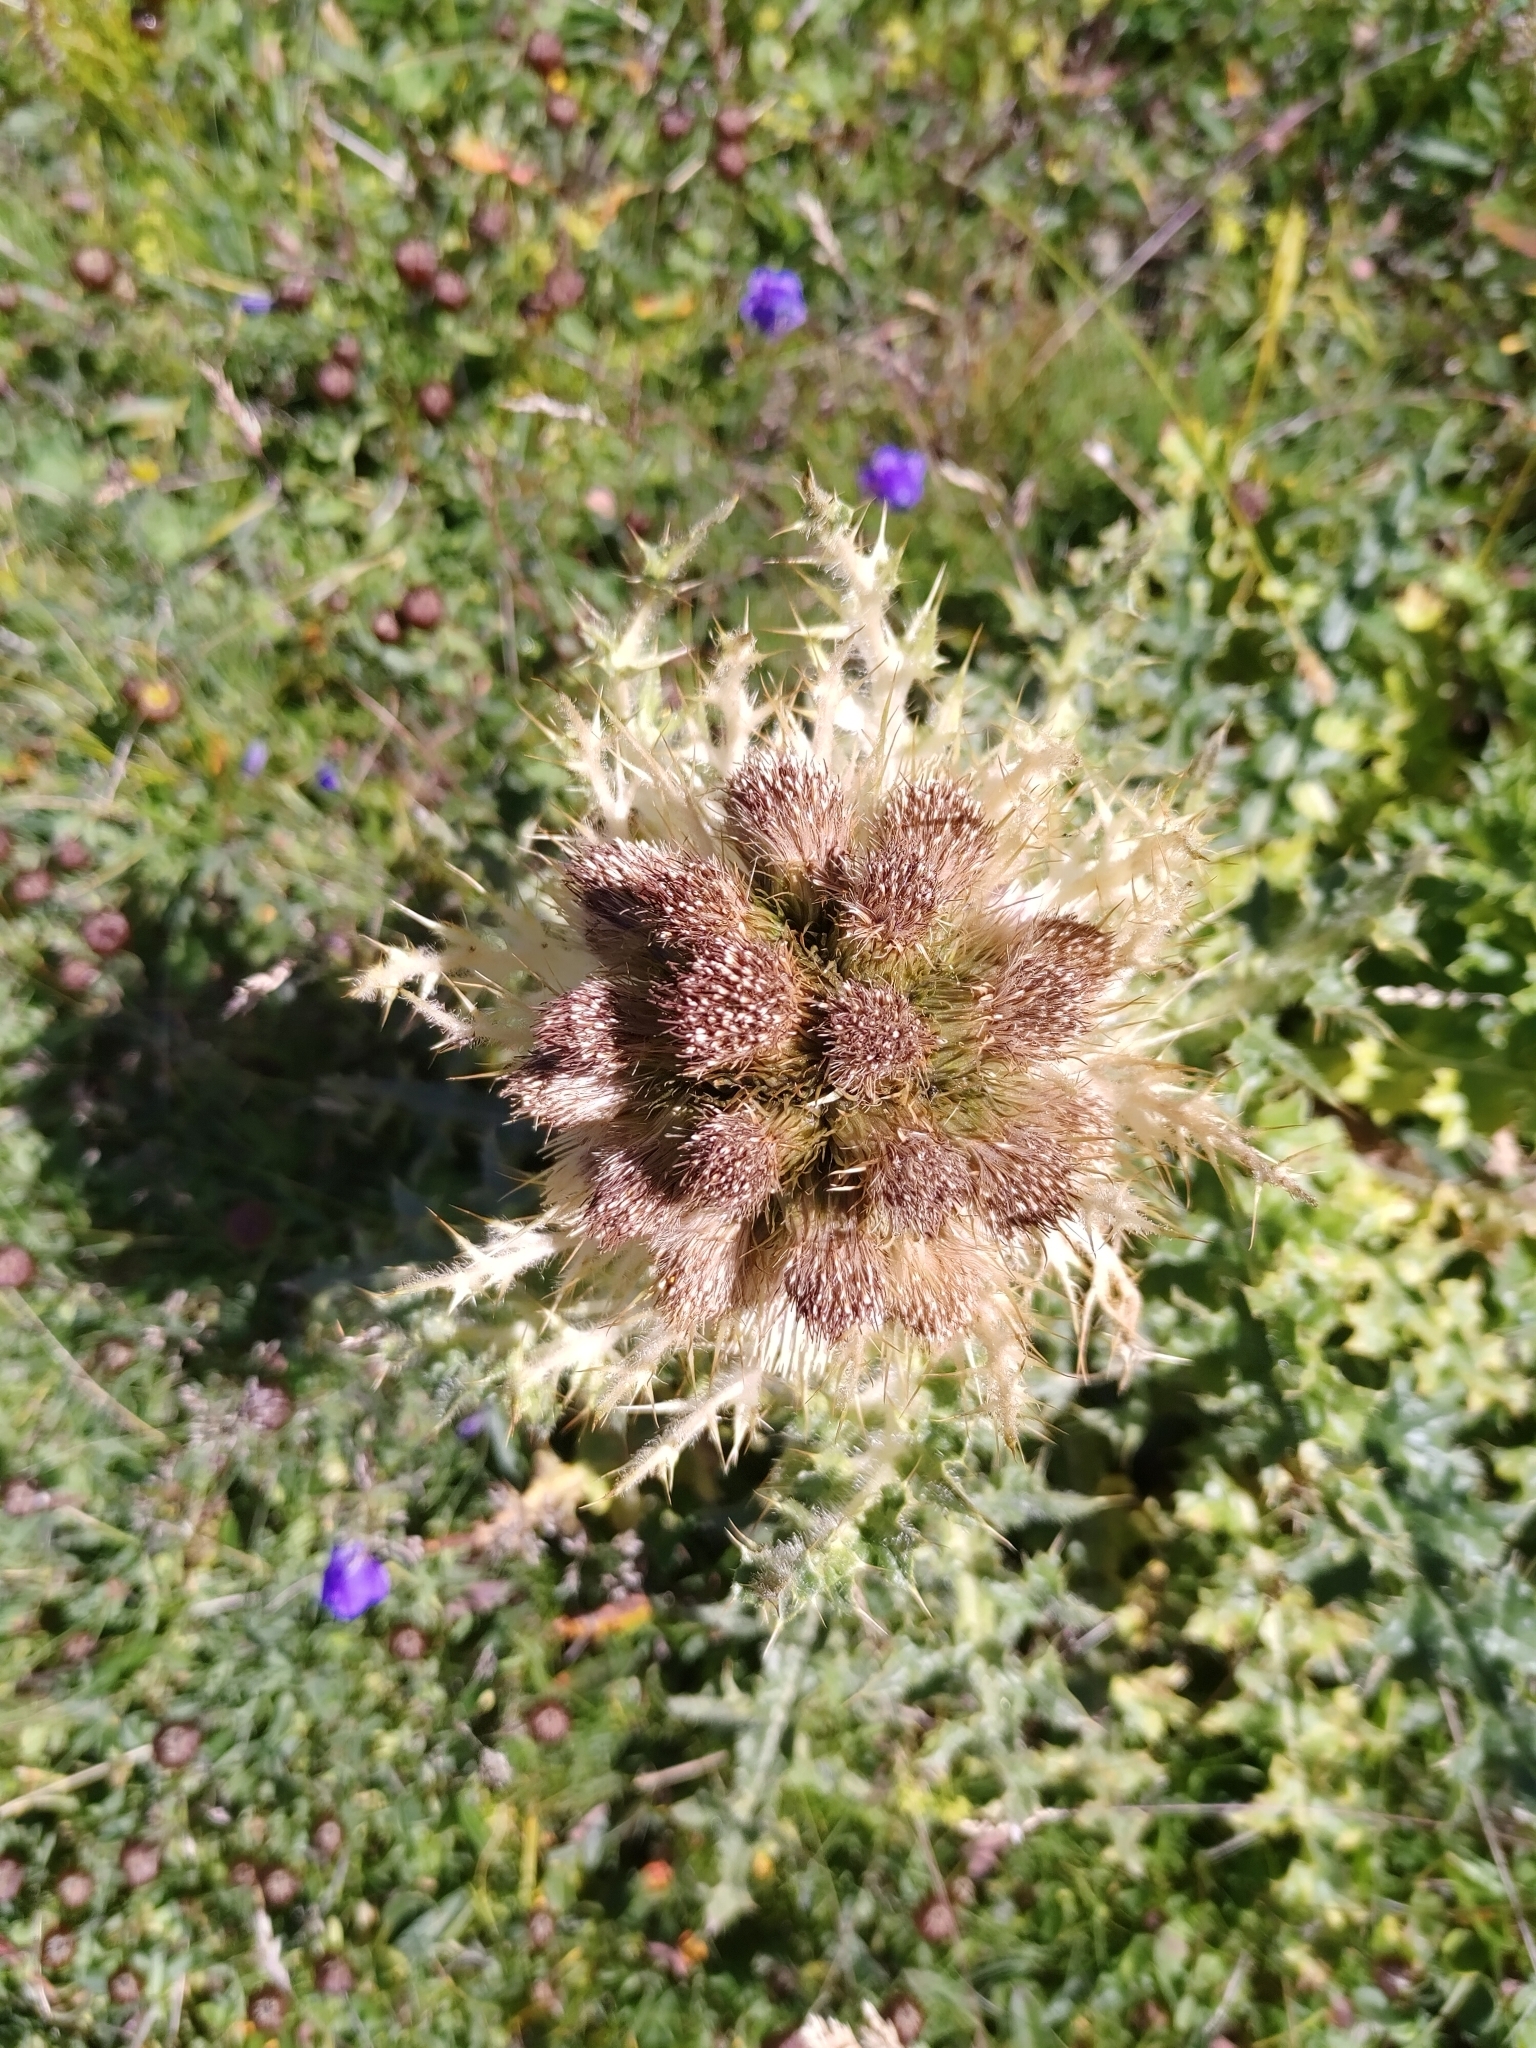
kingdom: Plantae
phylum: Tracheophyta
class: Magnoliopsida
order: Asterales
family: Asteraceae
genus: Cirsium
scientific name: Cirsium spinosissimum
